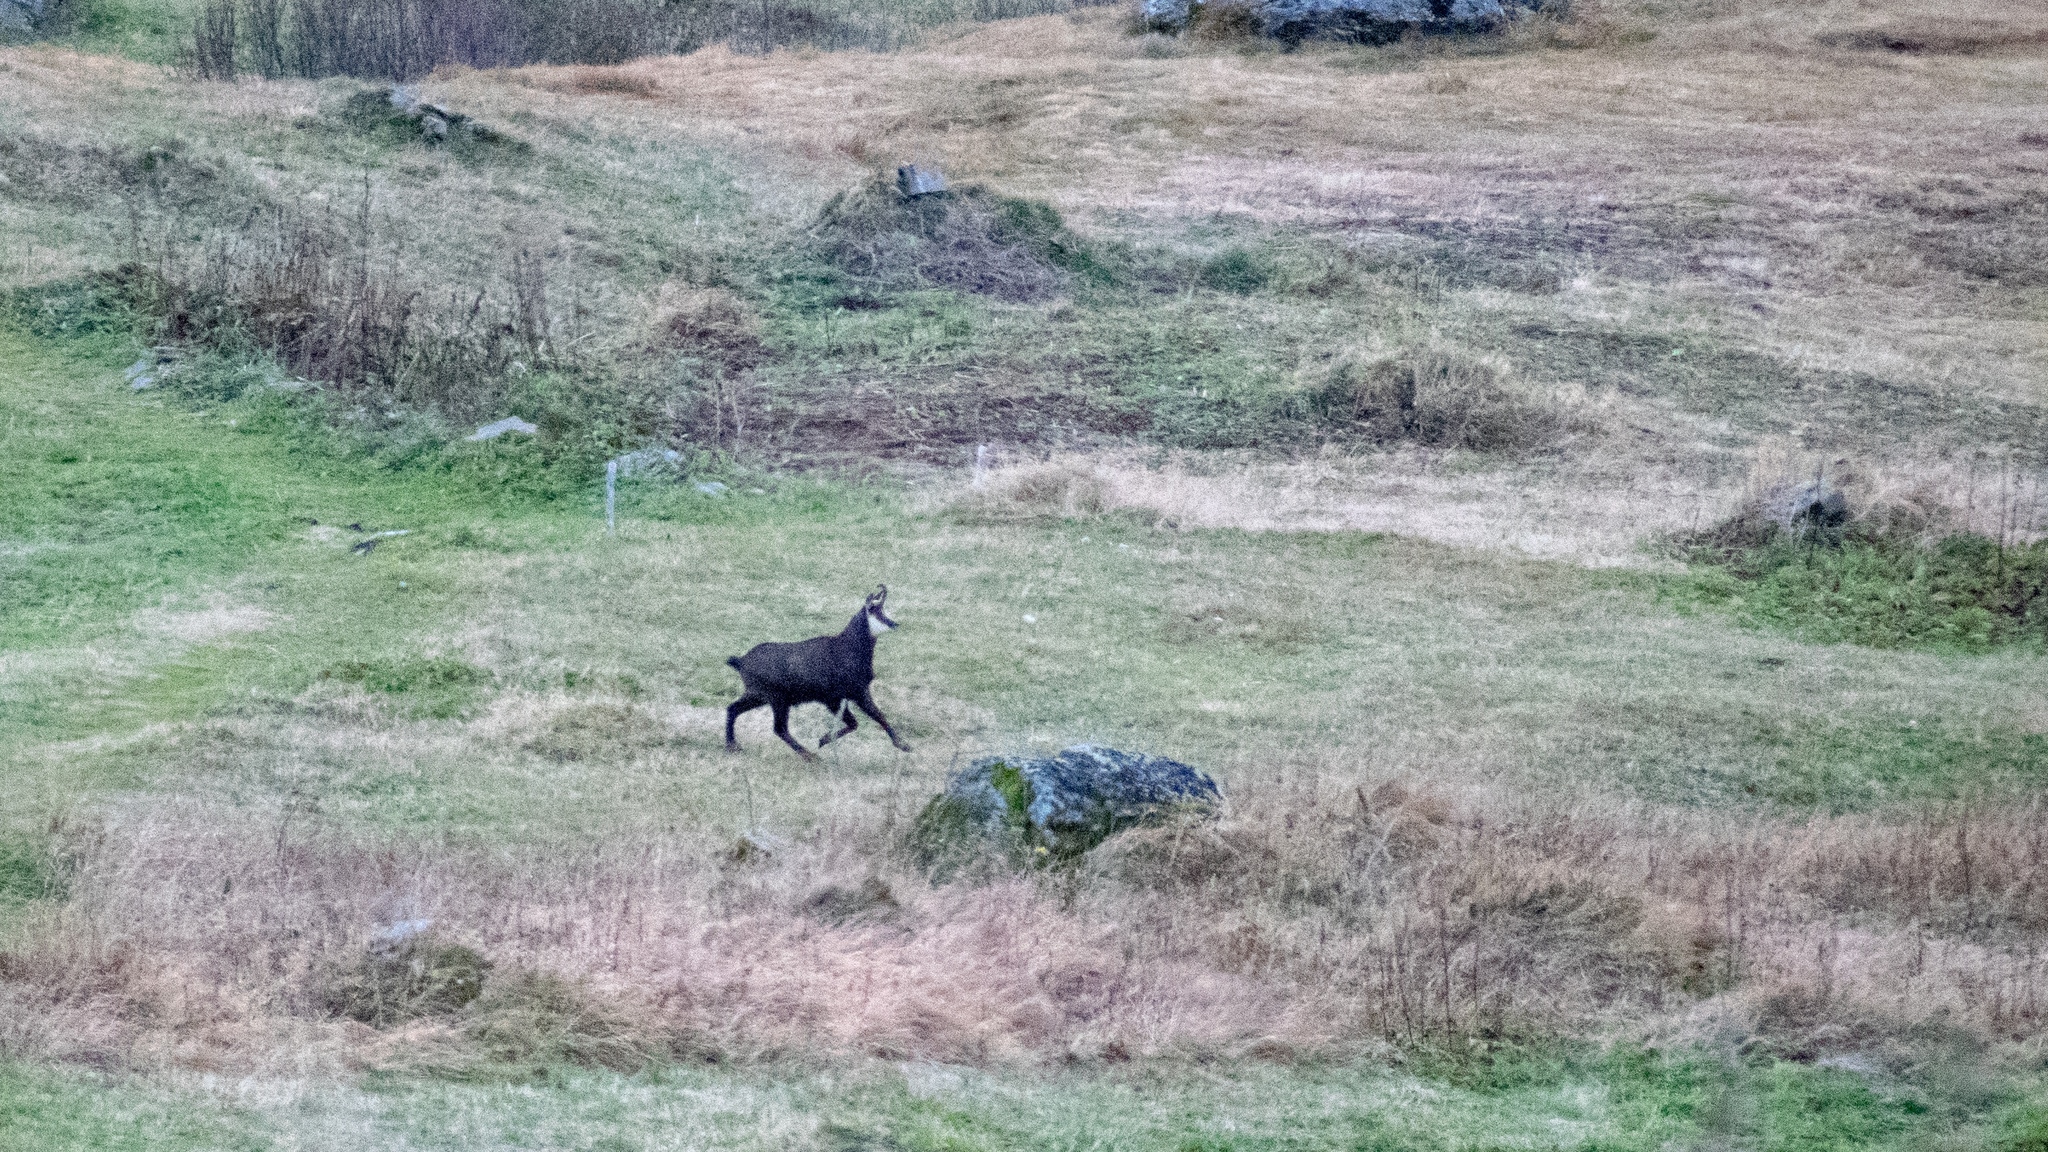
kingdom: Animalia
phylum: Chordata
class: Mammalia
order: Artiodactyla
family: Bovidae
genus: Rupicapra
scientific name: Rupicapra rupicapra
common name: Chamois
